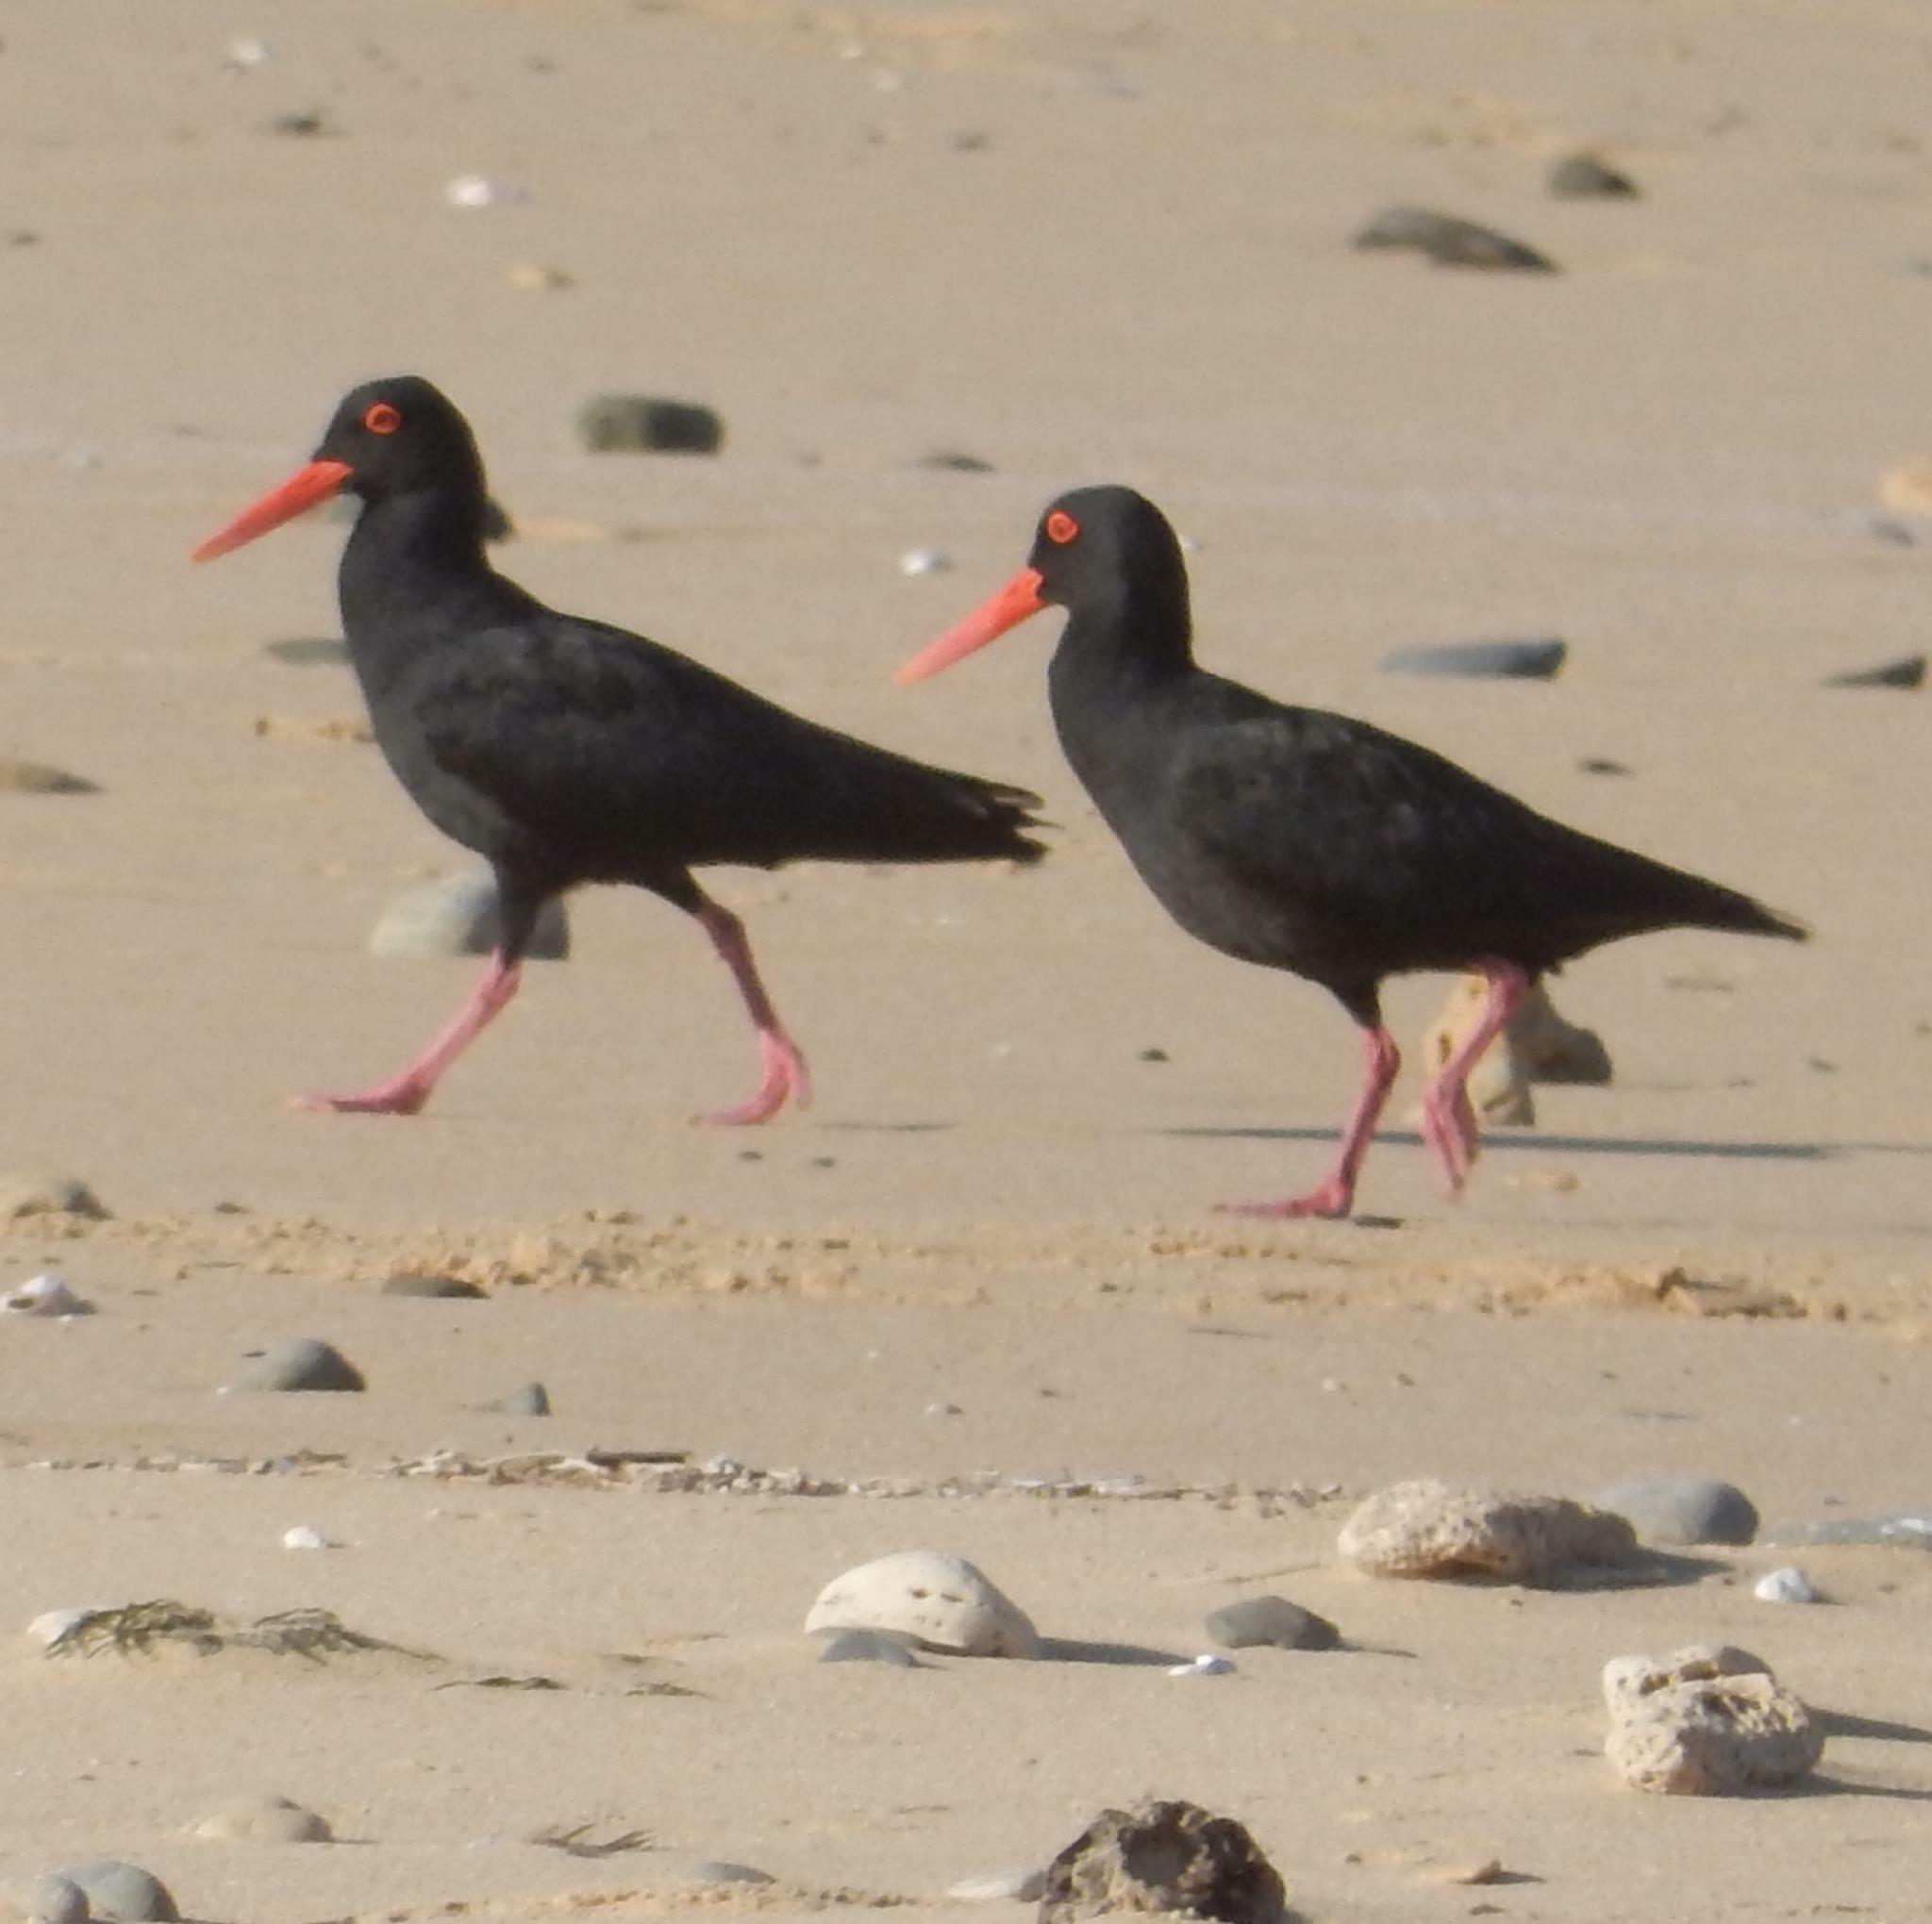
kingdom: Animalia
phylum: Chordata
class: Aves
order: Charadriiformes
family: Haematopodidae
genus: Haematopus
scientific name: Haematopus moquini
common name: African oystercatcher
